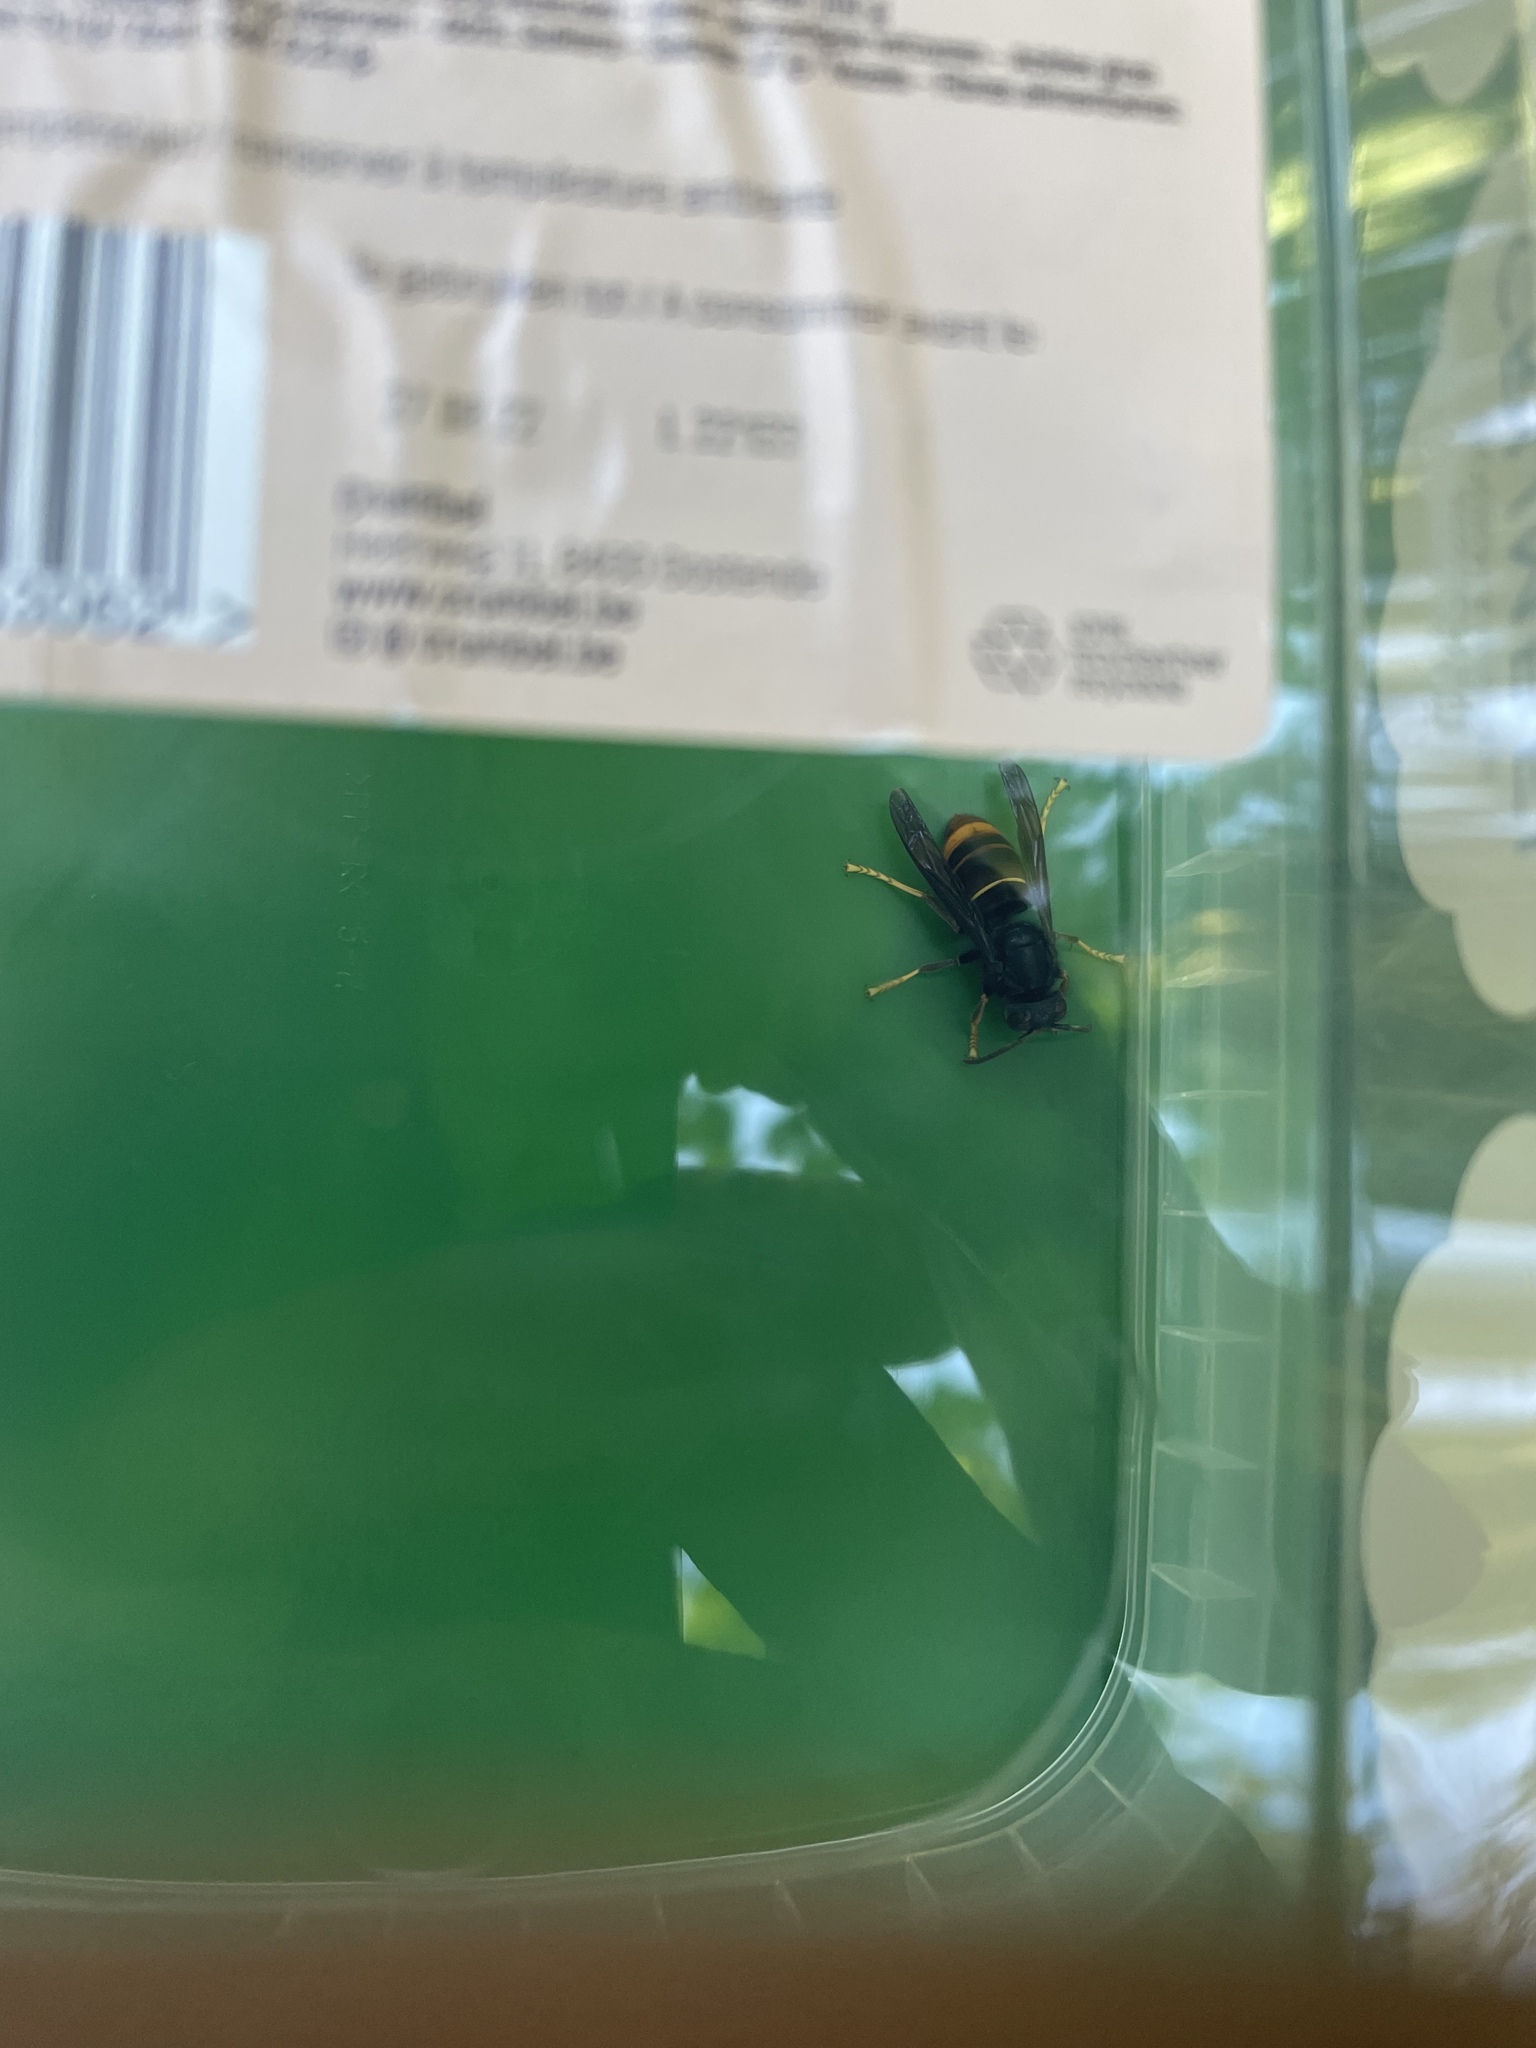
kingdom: Animalia
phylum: Arthropoda
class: Insecta
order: Hymenoptera
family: Vespidae
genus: Vespa
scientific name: Vespa velutina
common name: Asian hornet
